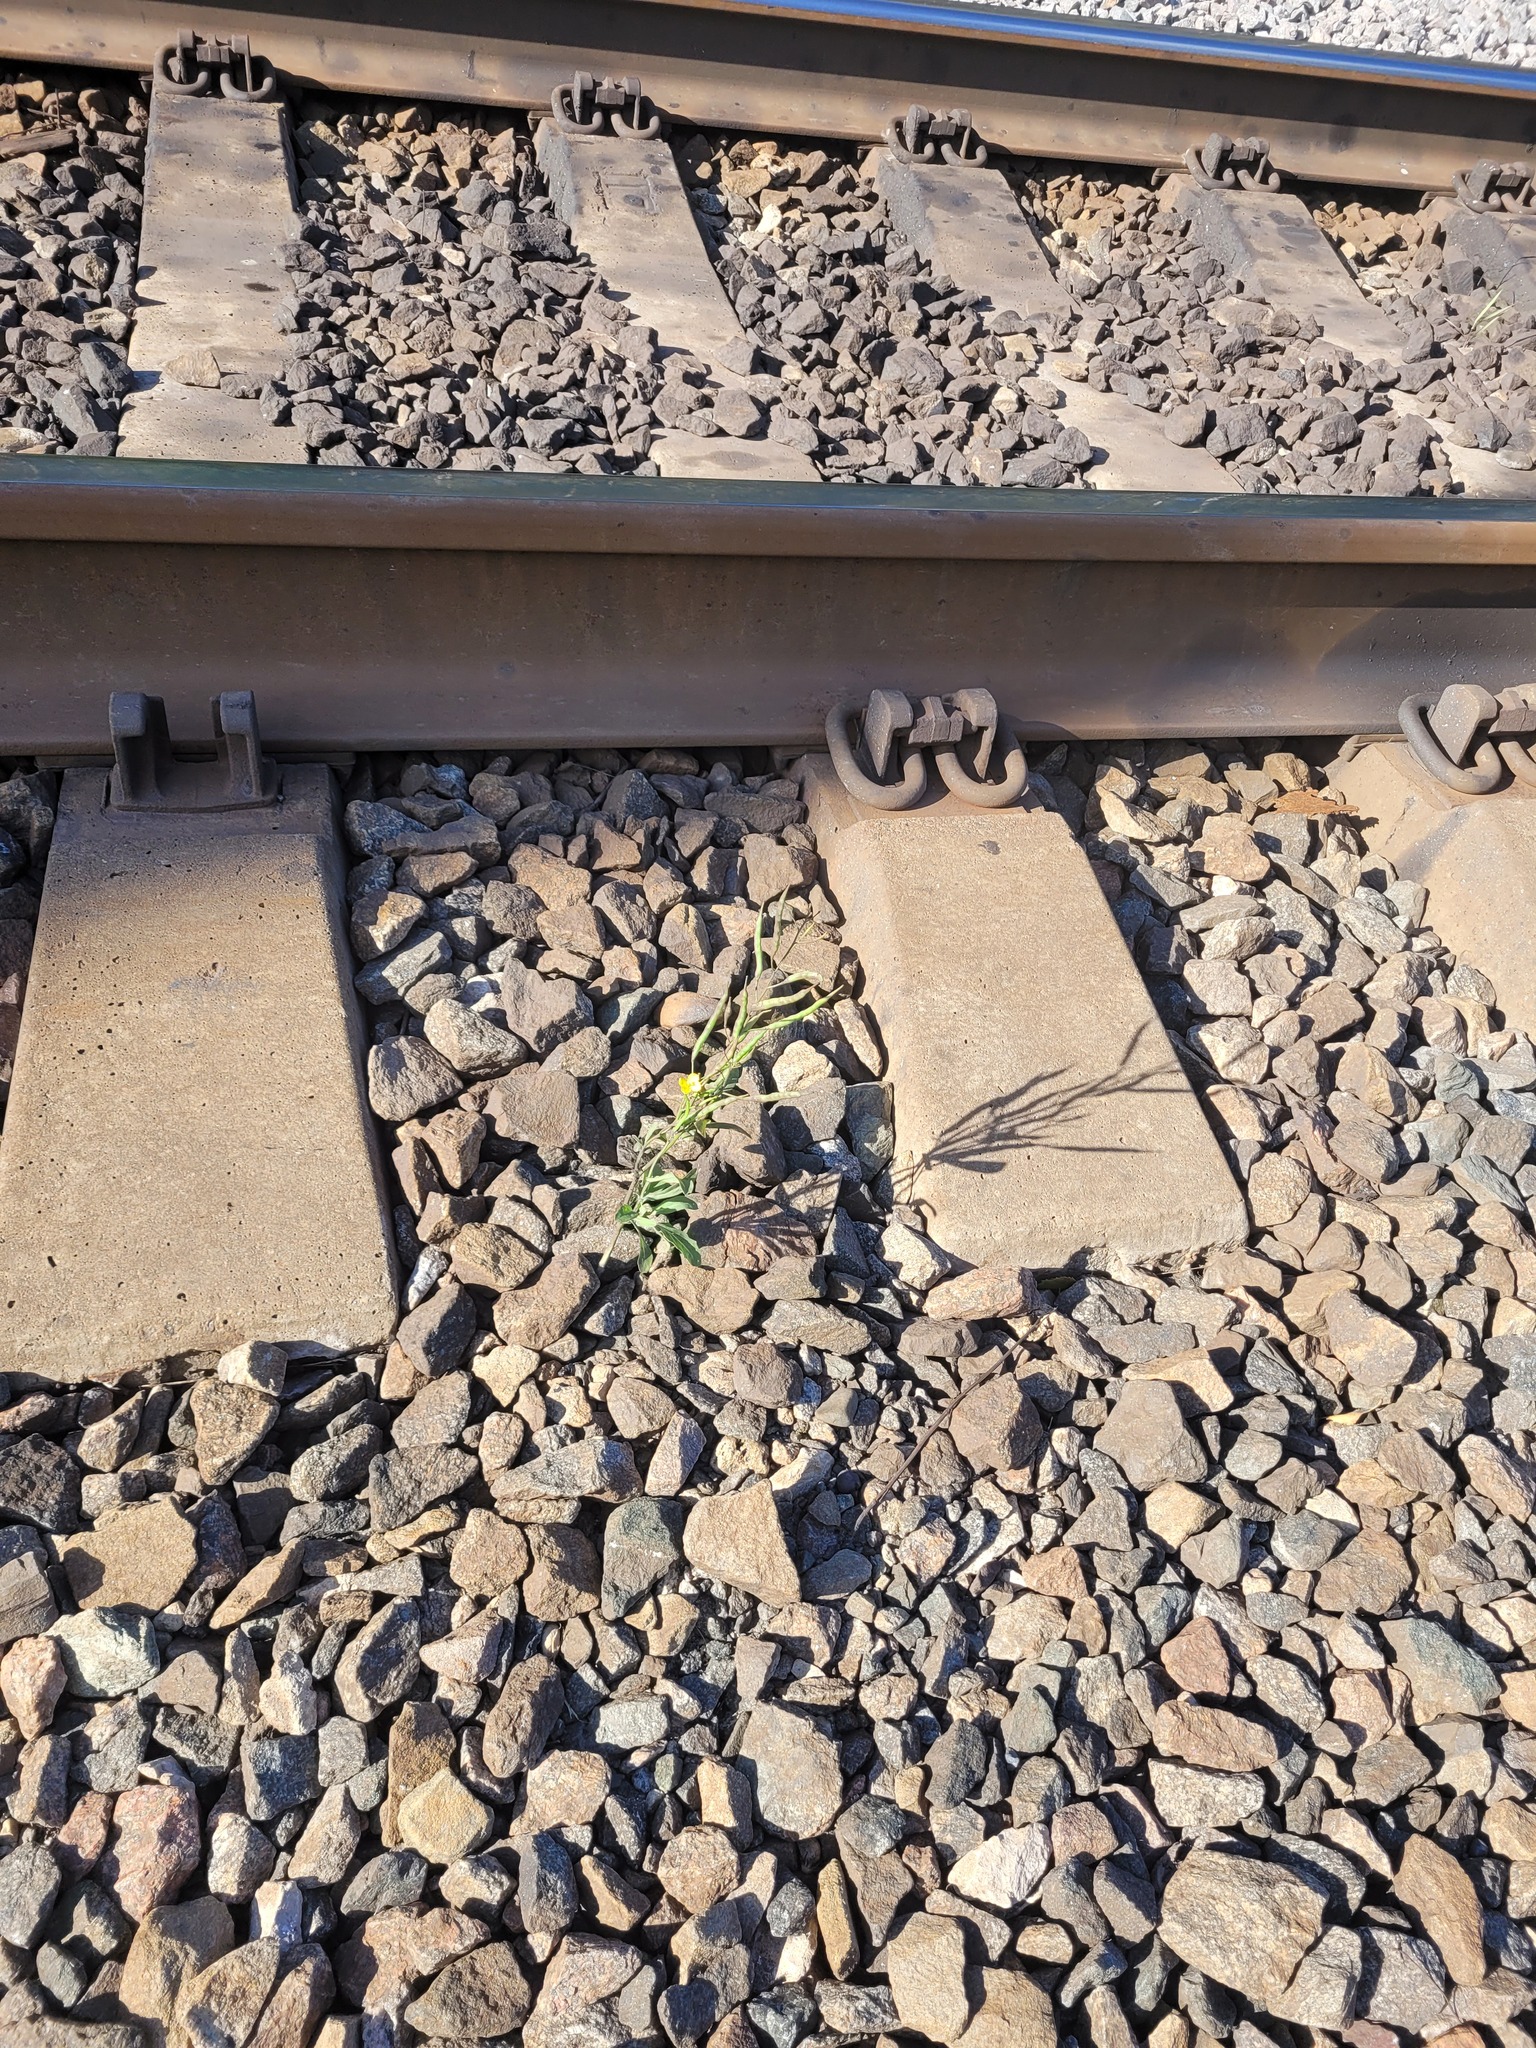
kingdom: Plantae
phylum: Tracheophyta
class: Magnoliopsida
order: Brassicales
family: Brassicaceae
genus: Brassica
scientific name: Brassica napus
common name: Rape
